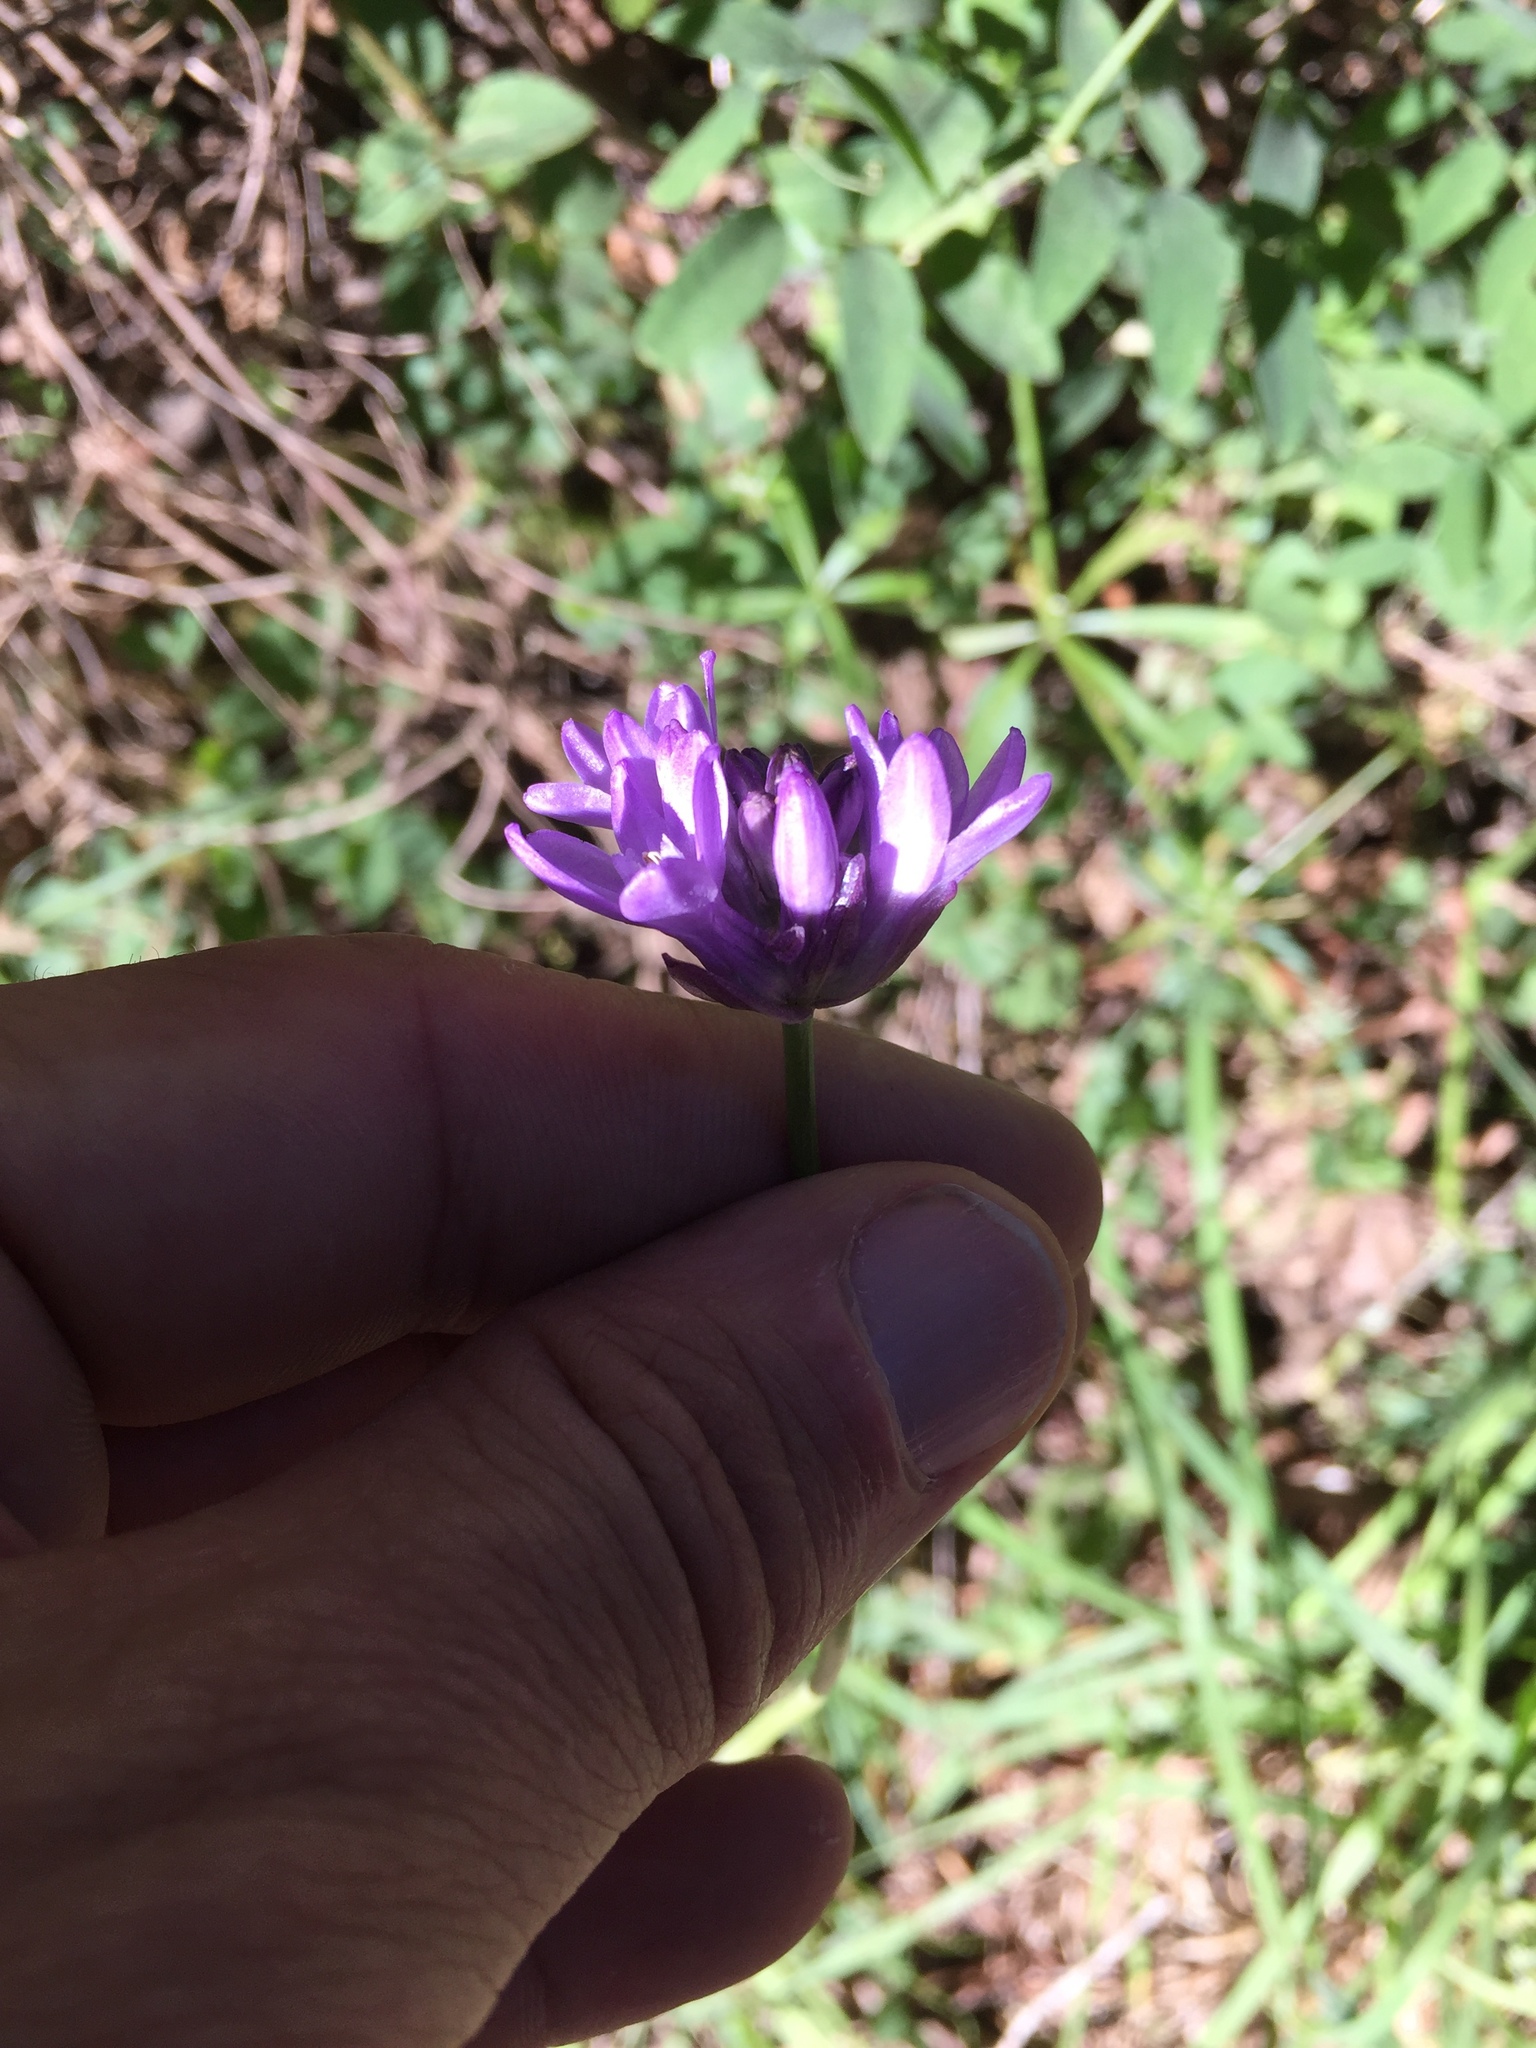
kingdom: Plantae
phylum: Tracheophyta
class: Liliopsida
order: Asparagales
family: Asparagaceae
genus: Dichelostemma
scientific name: Dichelostemma congestum
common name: Fork-tooth ookow
